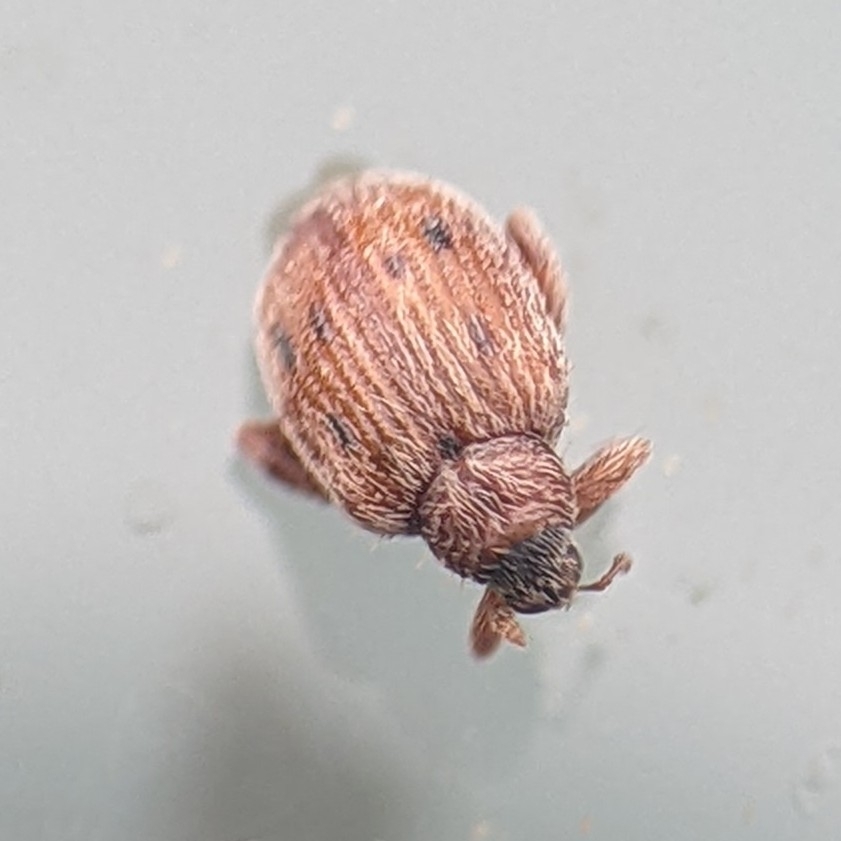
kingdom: Animalia
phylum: Arthropoda
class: Insecta
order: Coleoptera
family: Curculionidae
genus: Orchestes
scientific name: Orchestes steppensis
